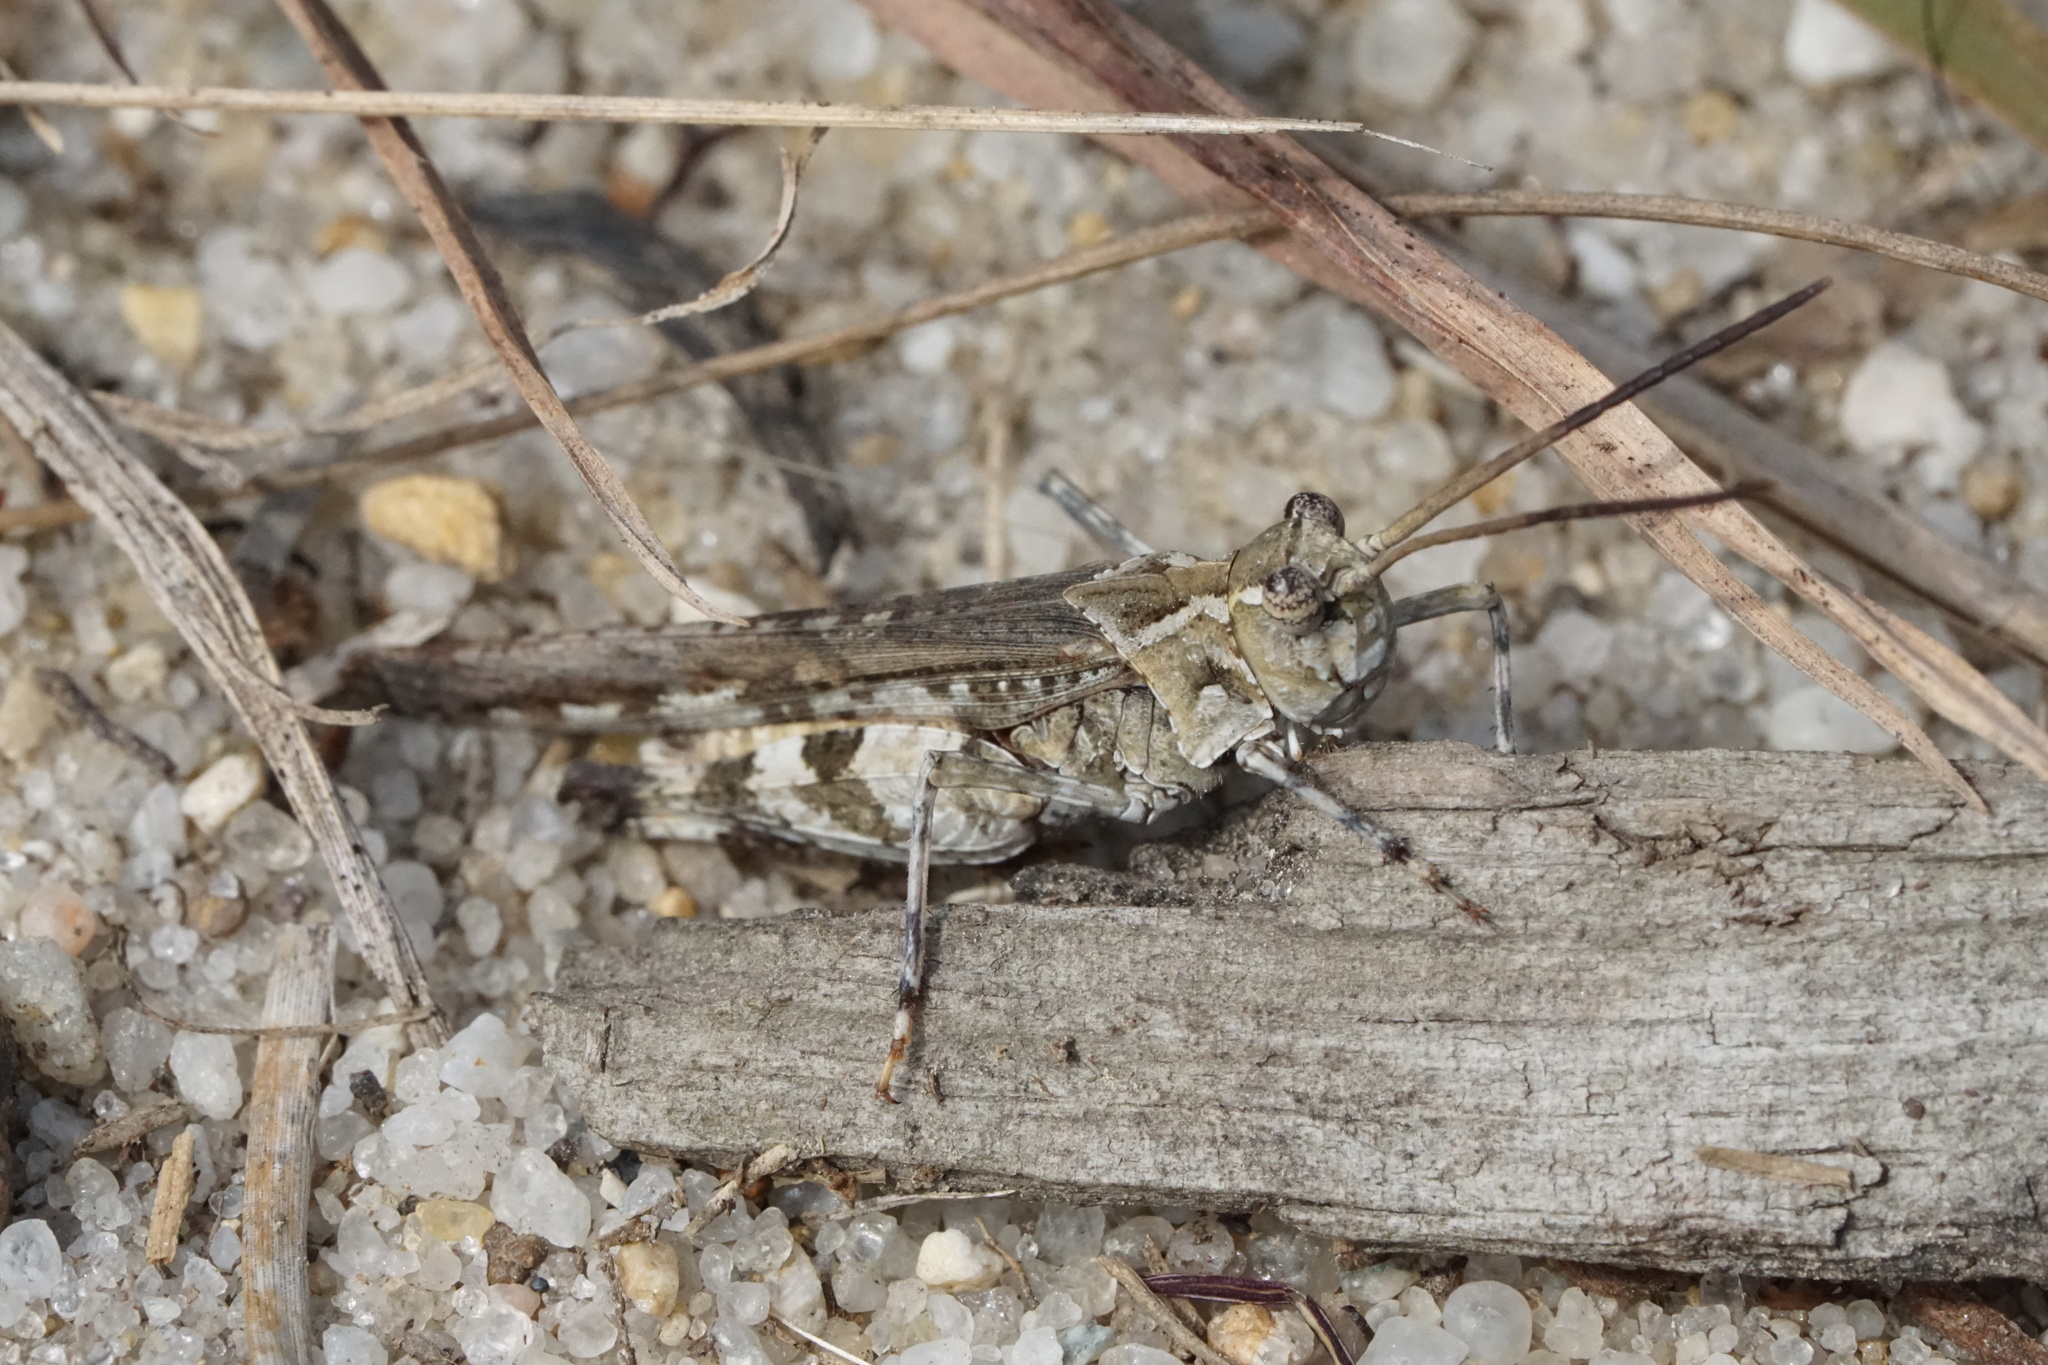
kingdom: Animalia
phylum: Arthropoda
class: Insecta
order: Orthoptera
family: Acrididae
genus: Psinidia
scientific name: Psinidia fenestralis
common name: Long-horned locust
